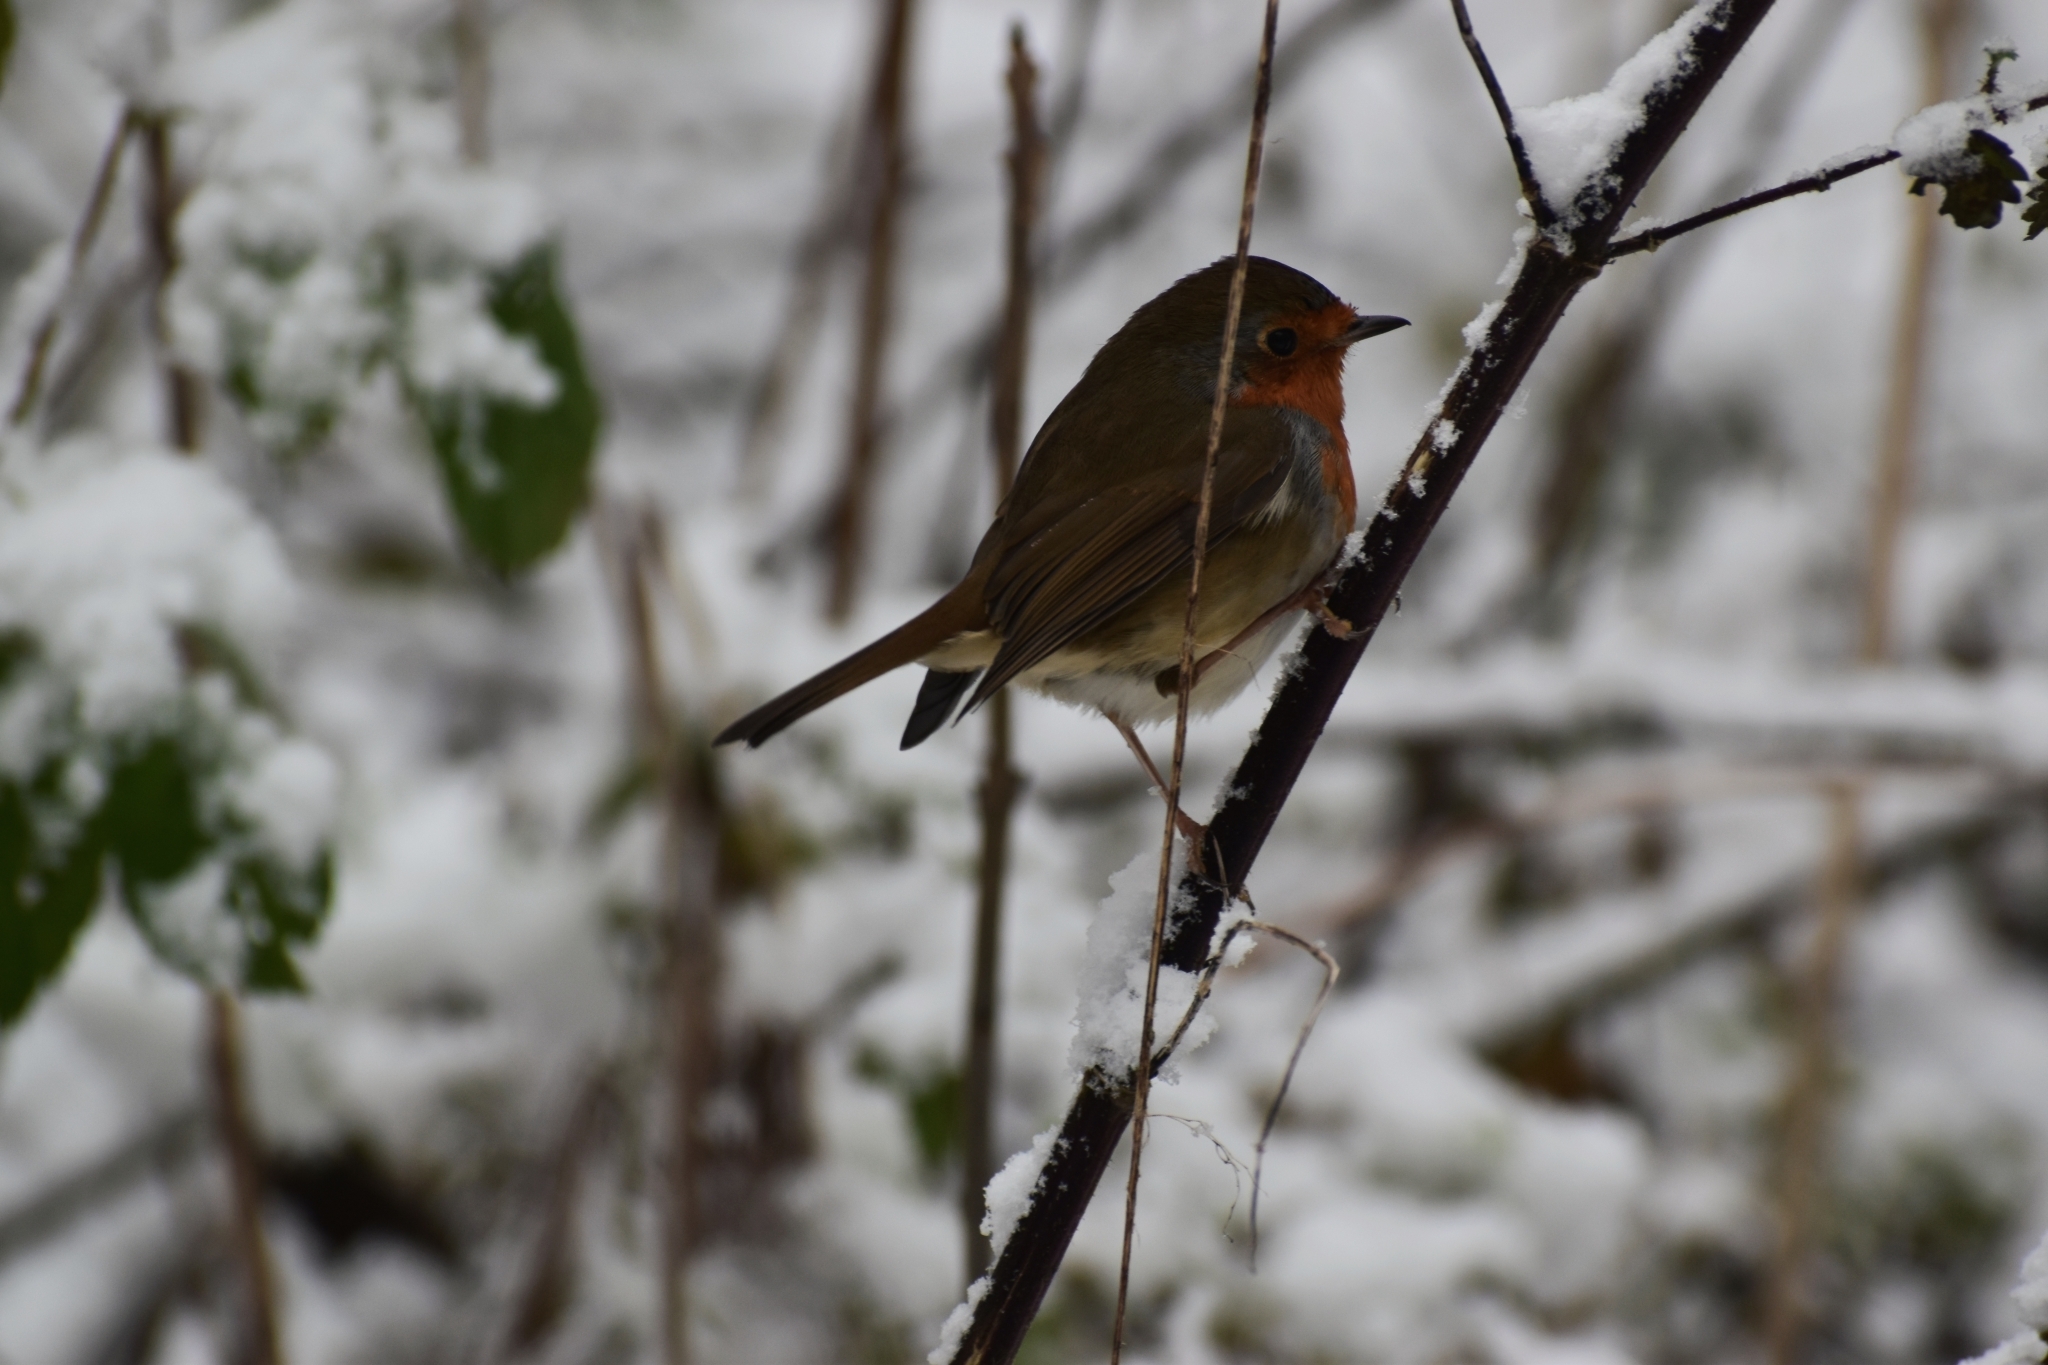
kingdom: Animalia
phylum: Chordata
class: Aves
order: Passeriformes
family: Muscicapidae
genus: Erithacus
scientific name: Erithacus rubecula
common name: European robin
